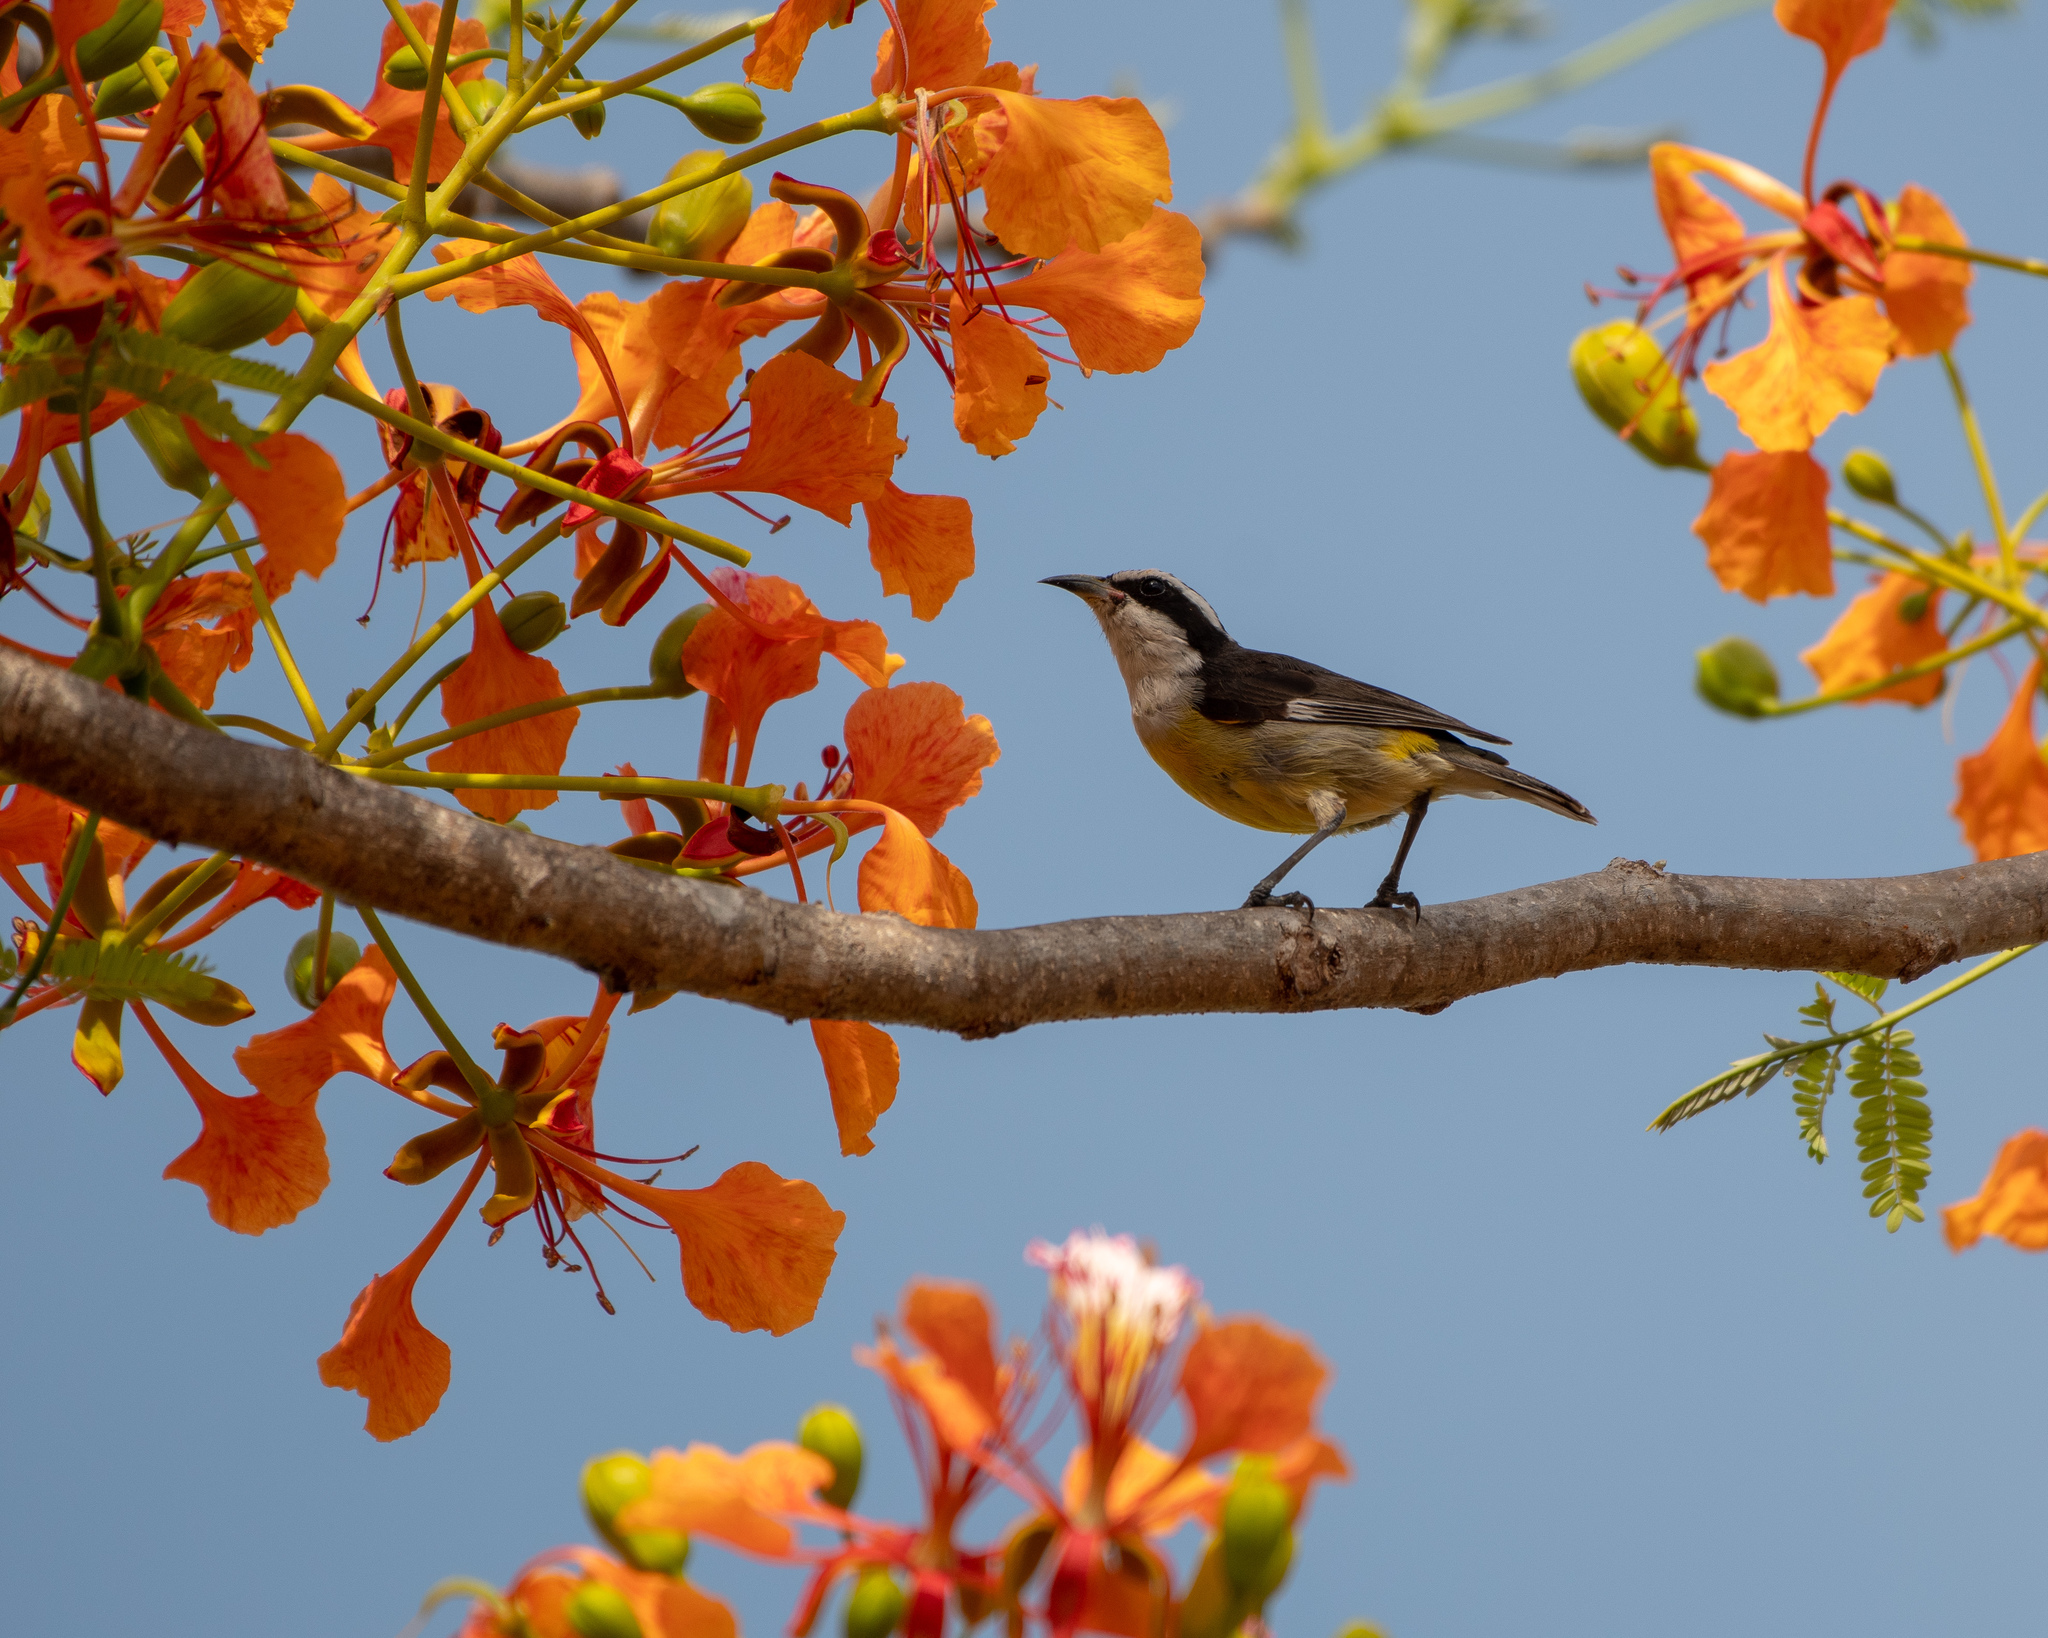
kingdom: Animalia
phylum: Chordata
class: Aves
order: Passeriformes
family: Thraupidae
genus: Coereba
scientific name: Coereba flaveola
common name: Bananaquit
